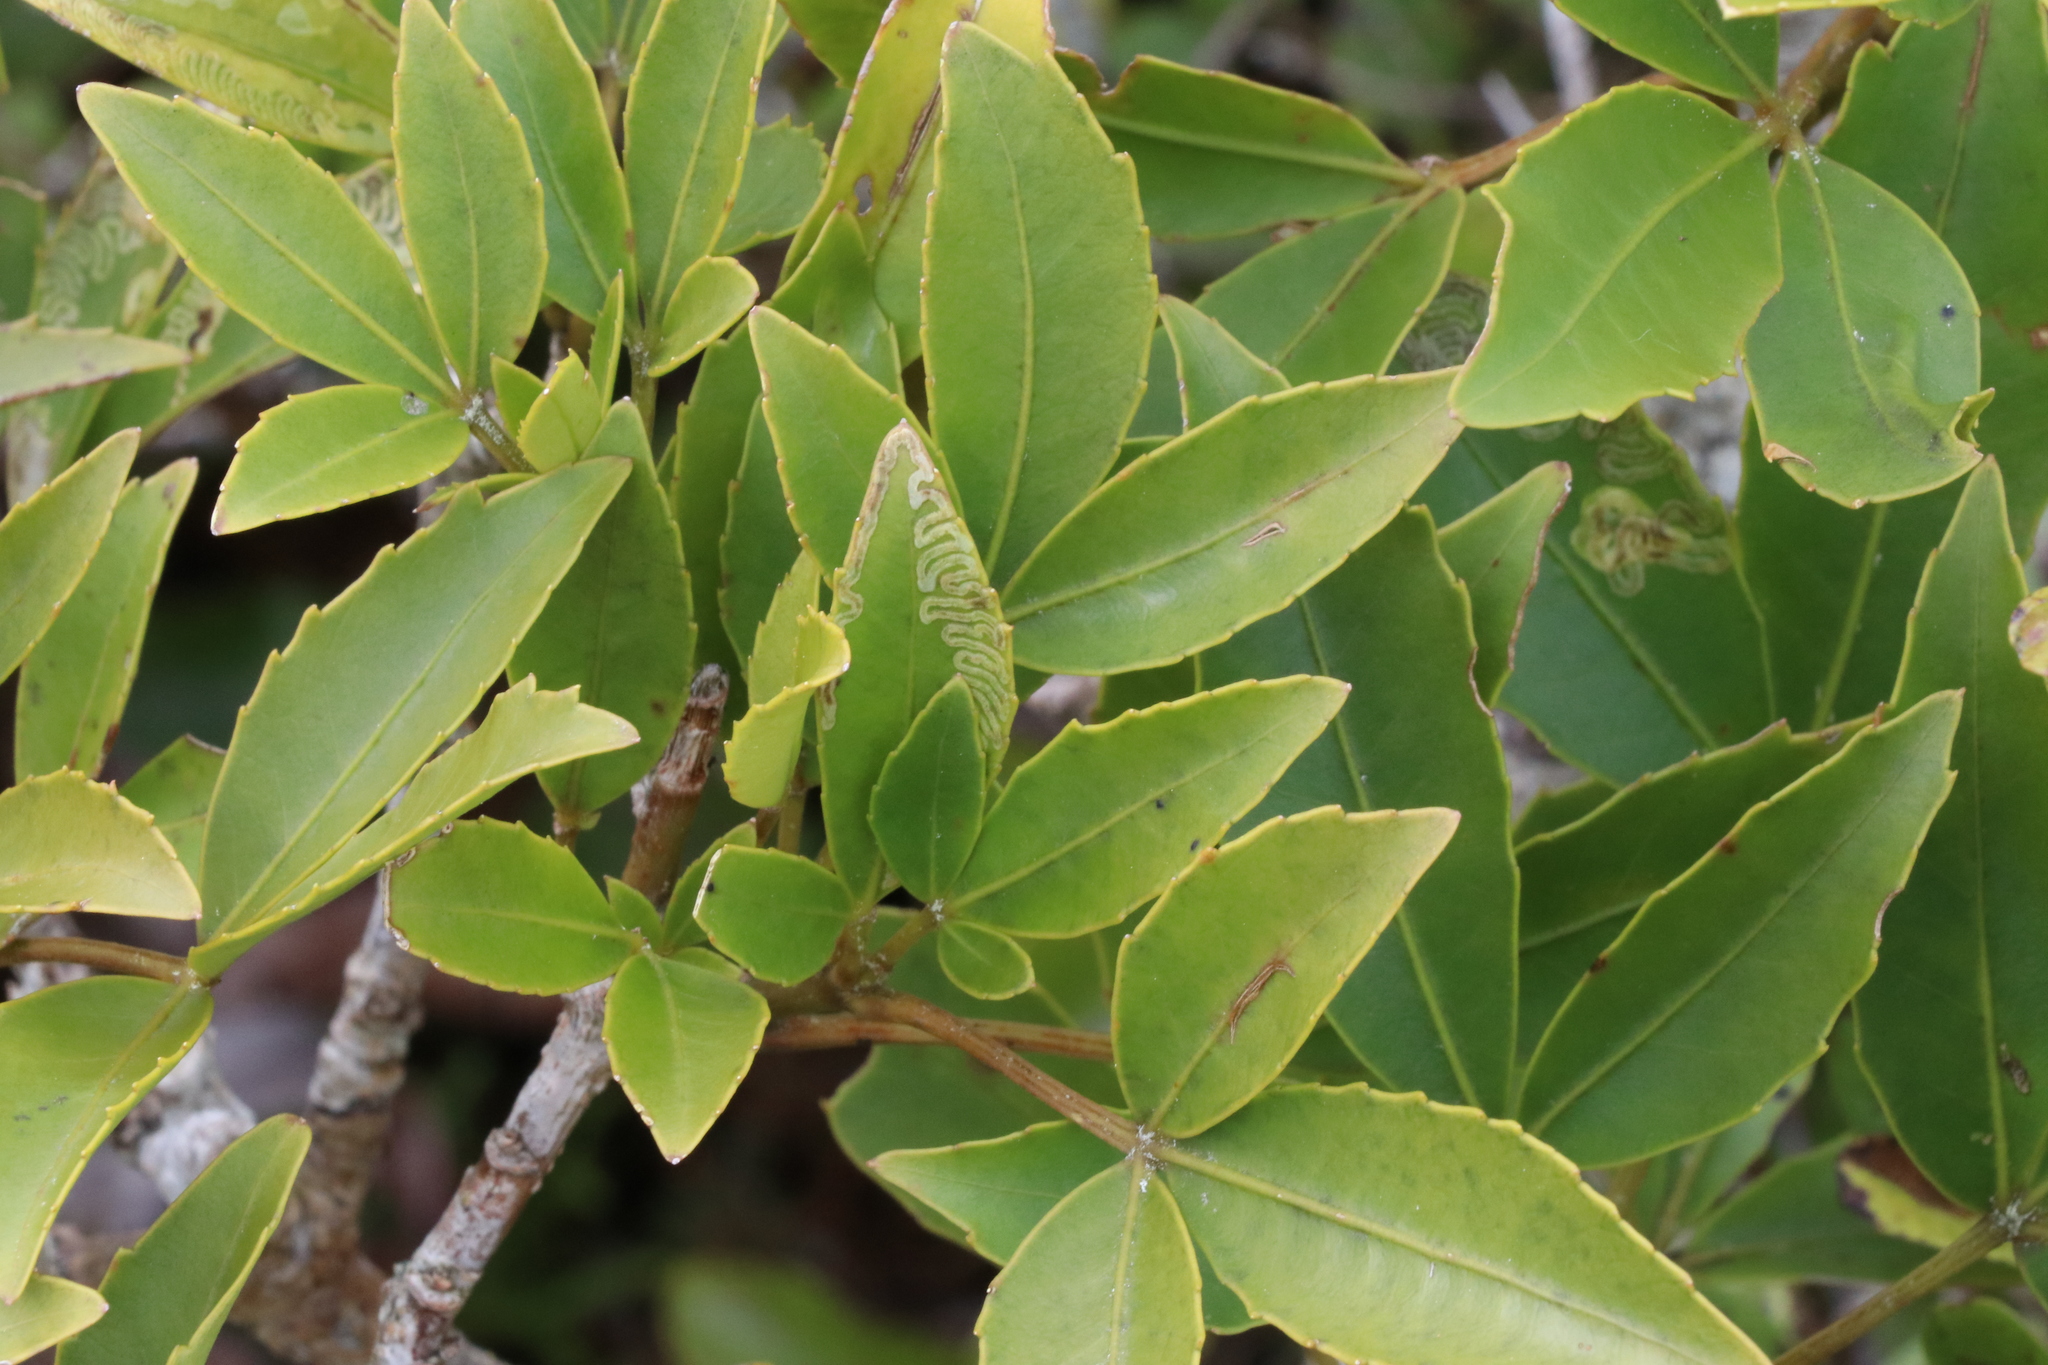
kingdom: Plantae
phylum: Tracheophyta
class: Magnoliopsida
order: Apiales
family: Araliaceae
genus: Neopanax
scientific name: Neopanax colensoi
